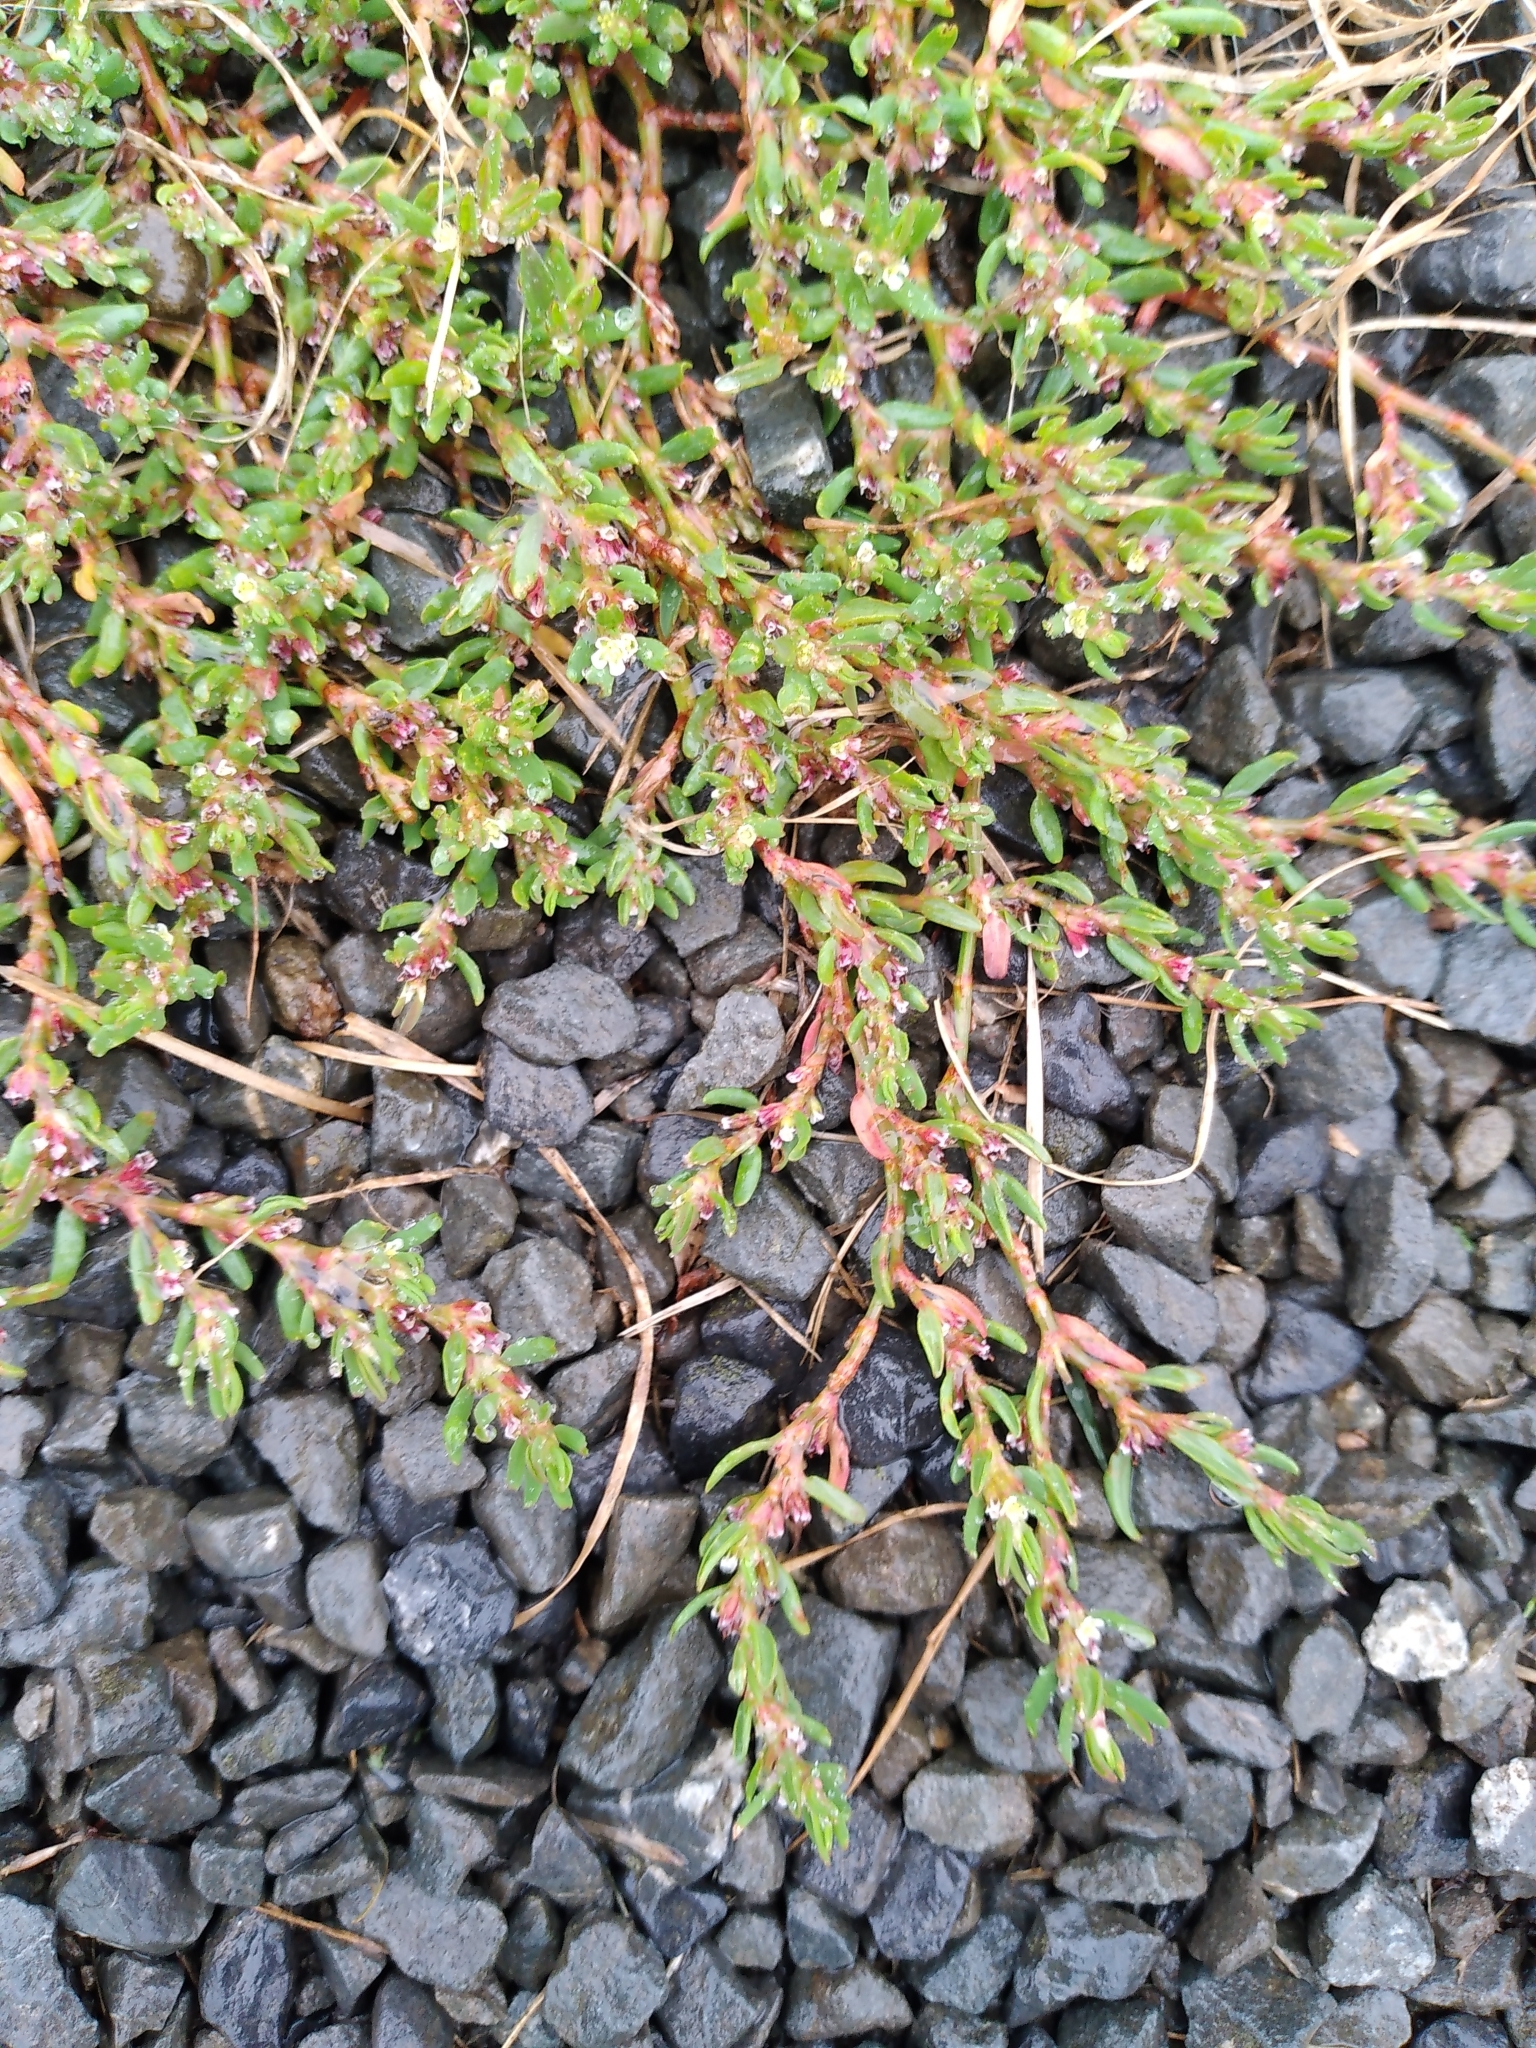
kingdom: Plantae
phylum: Tracheophyta
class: Magnoliopsida
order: Caryophyllales
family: Polygonaceae
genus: Polygonum
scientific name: Polygonum aviculare
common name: Prostrate knotweed
